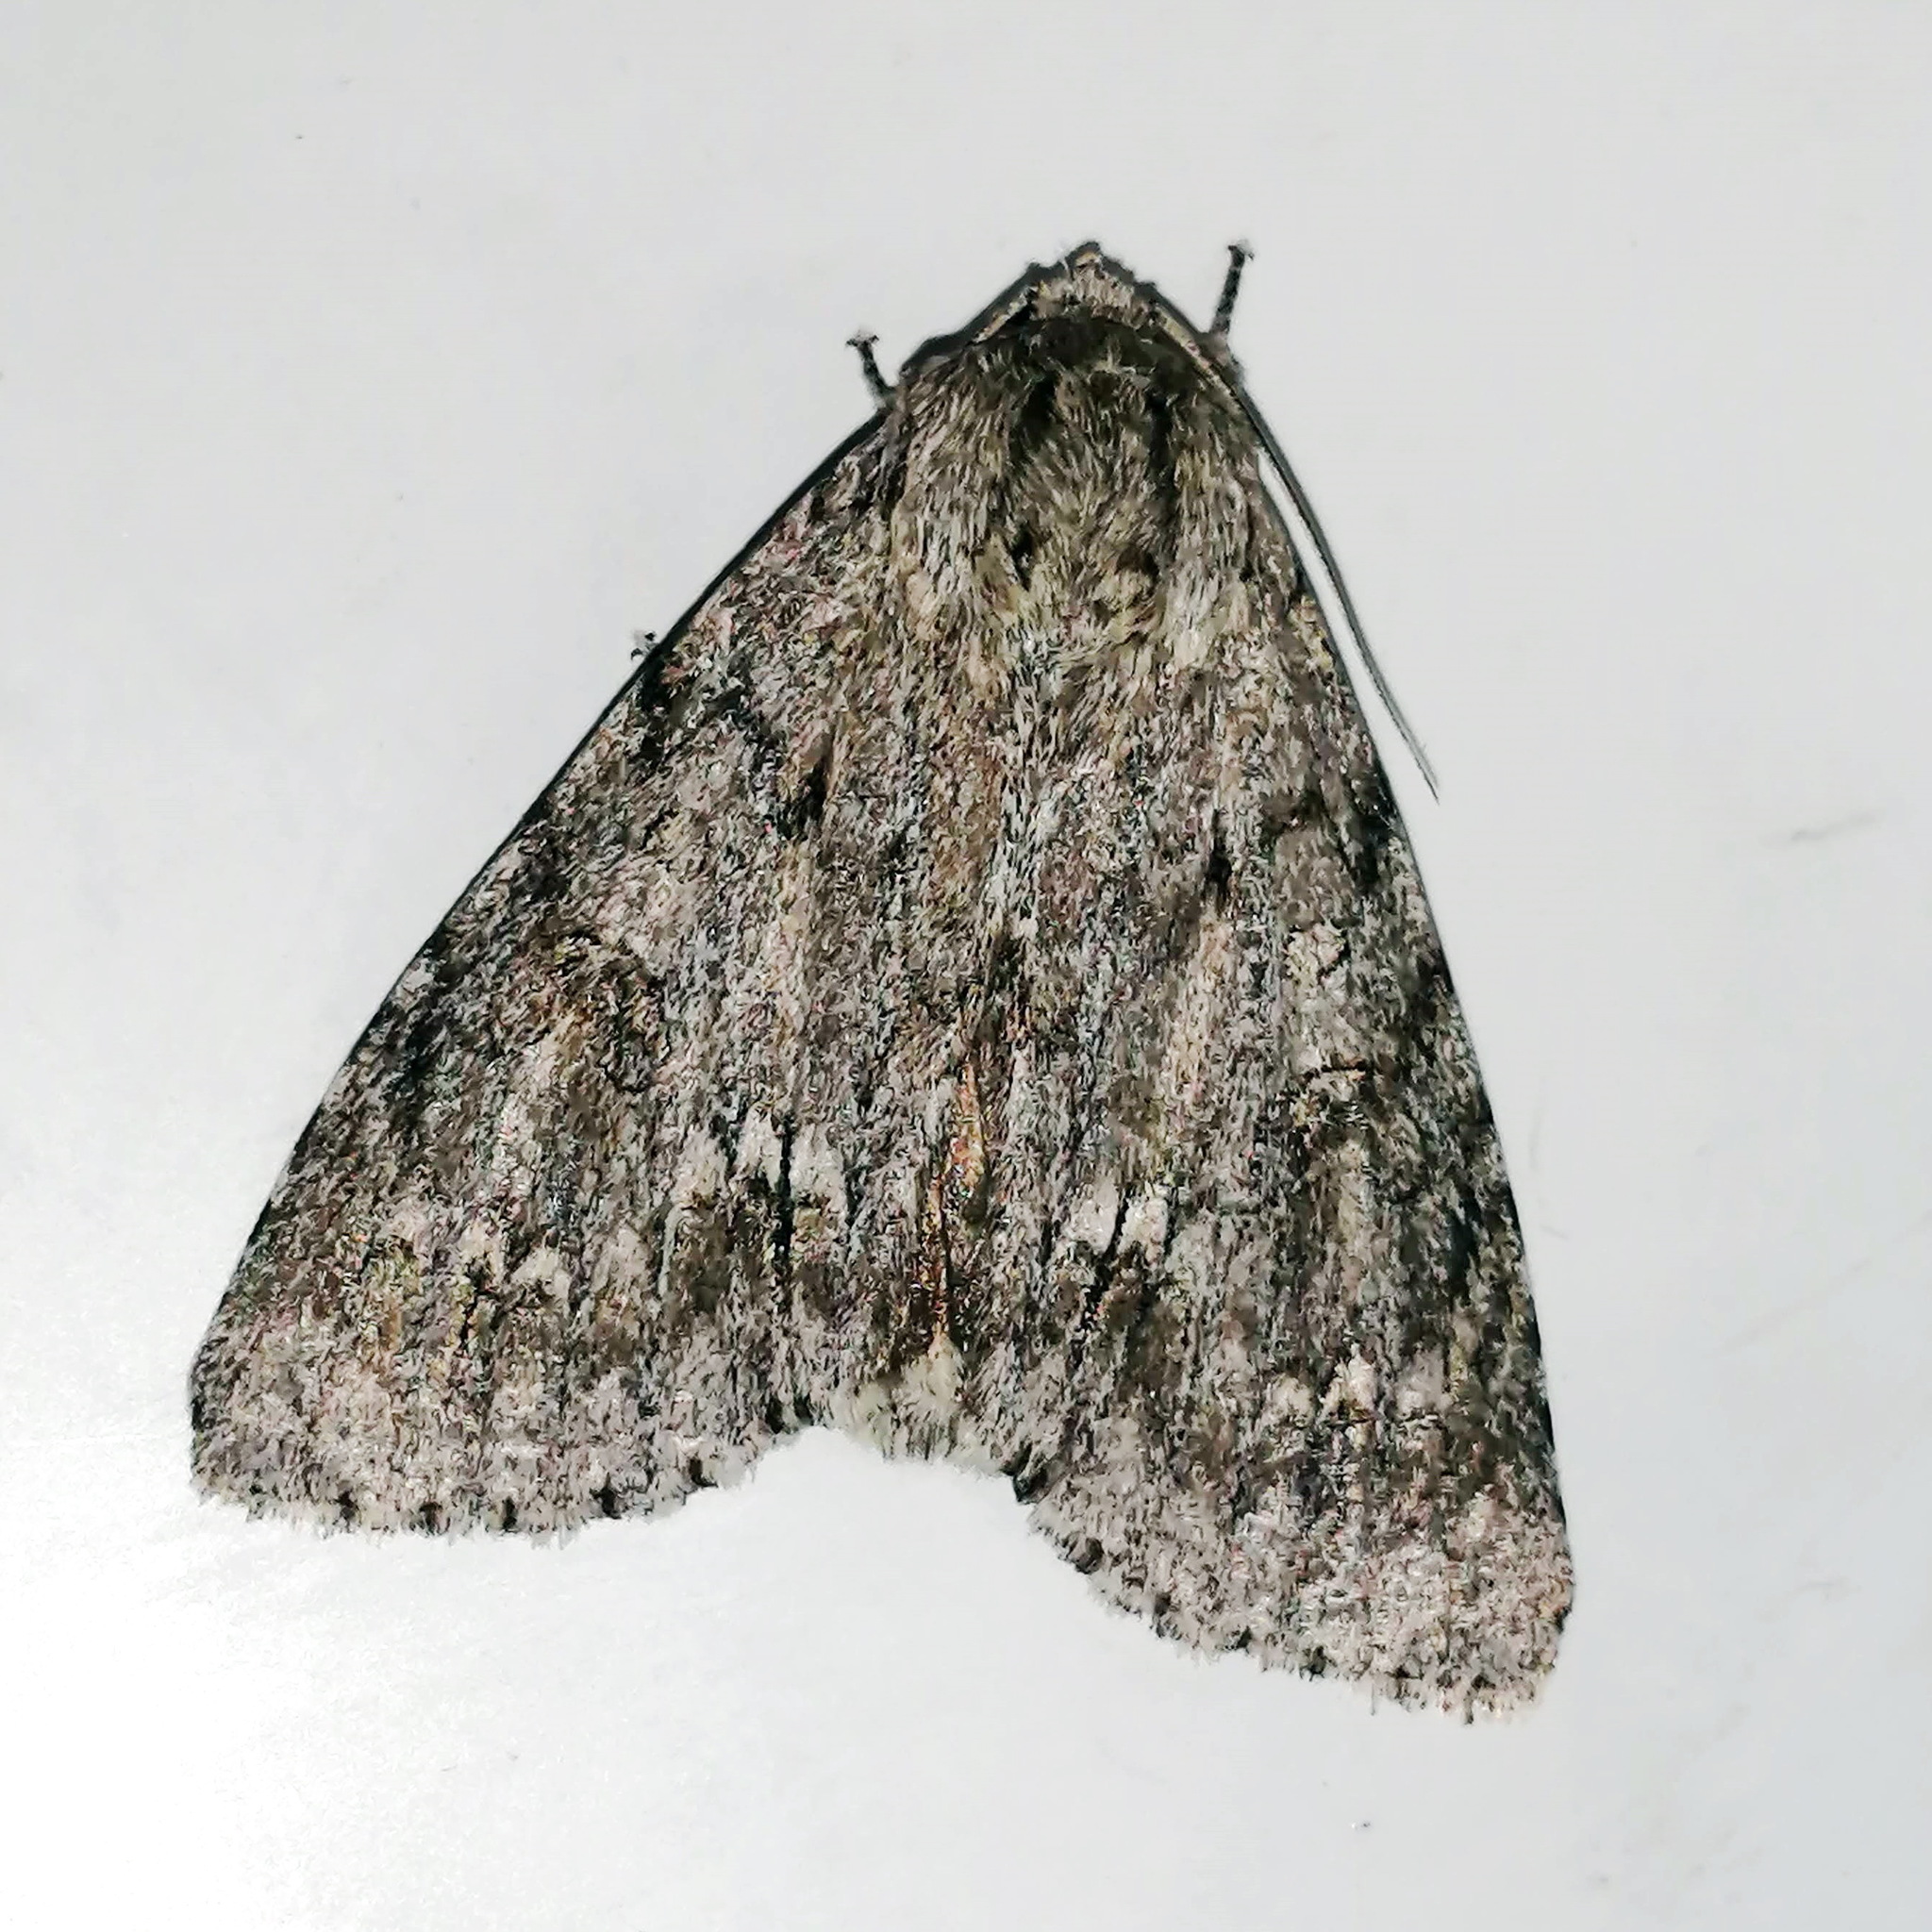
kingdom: Animalia
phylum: Arthropoda
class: Insecta
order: Lepidoptera
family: Noctuidae
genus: Acronicta
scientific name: Acronicta americana
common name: American dagger
